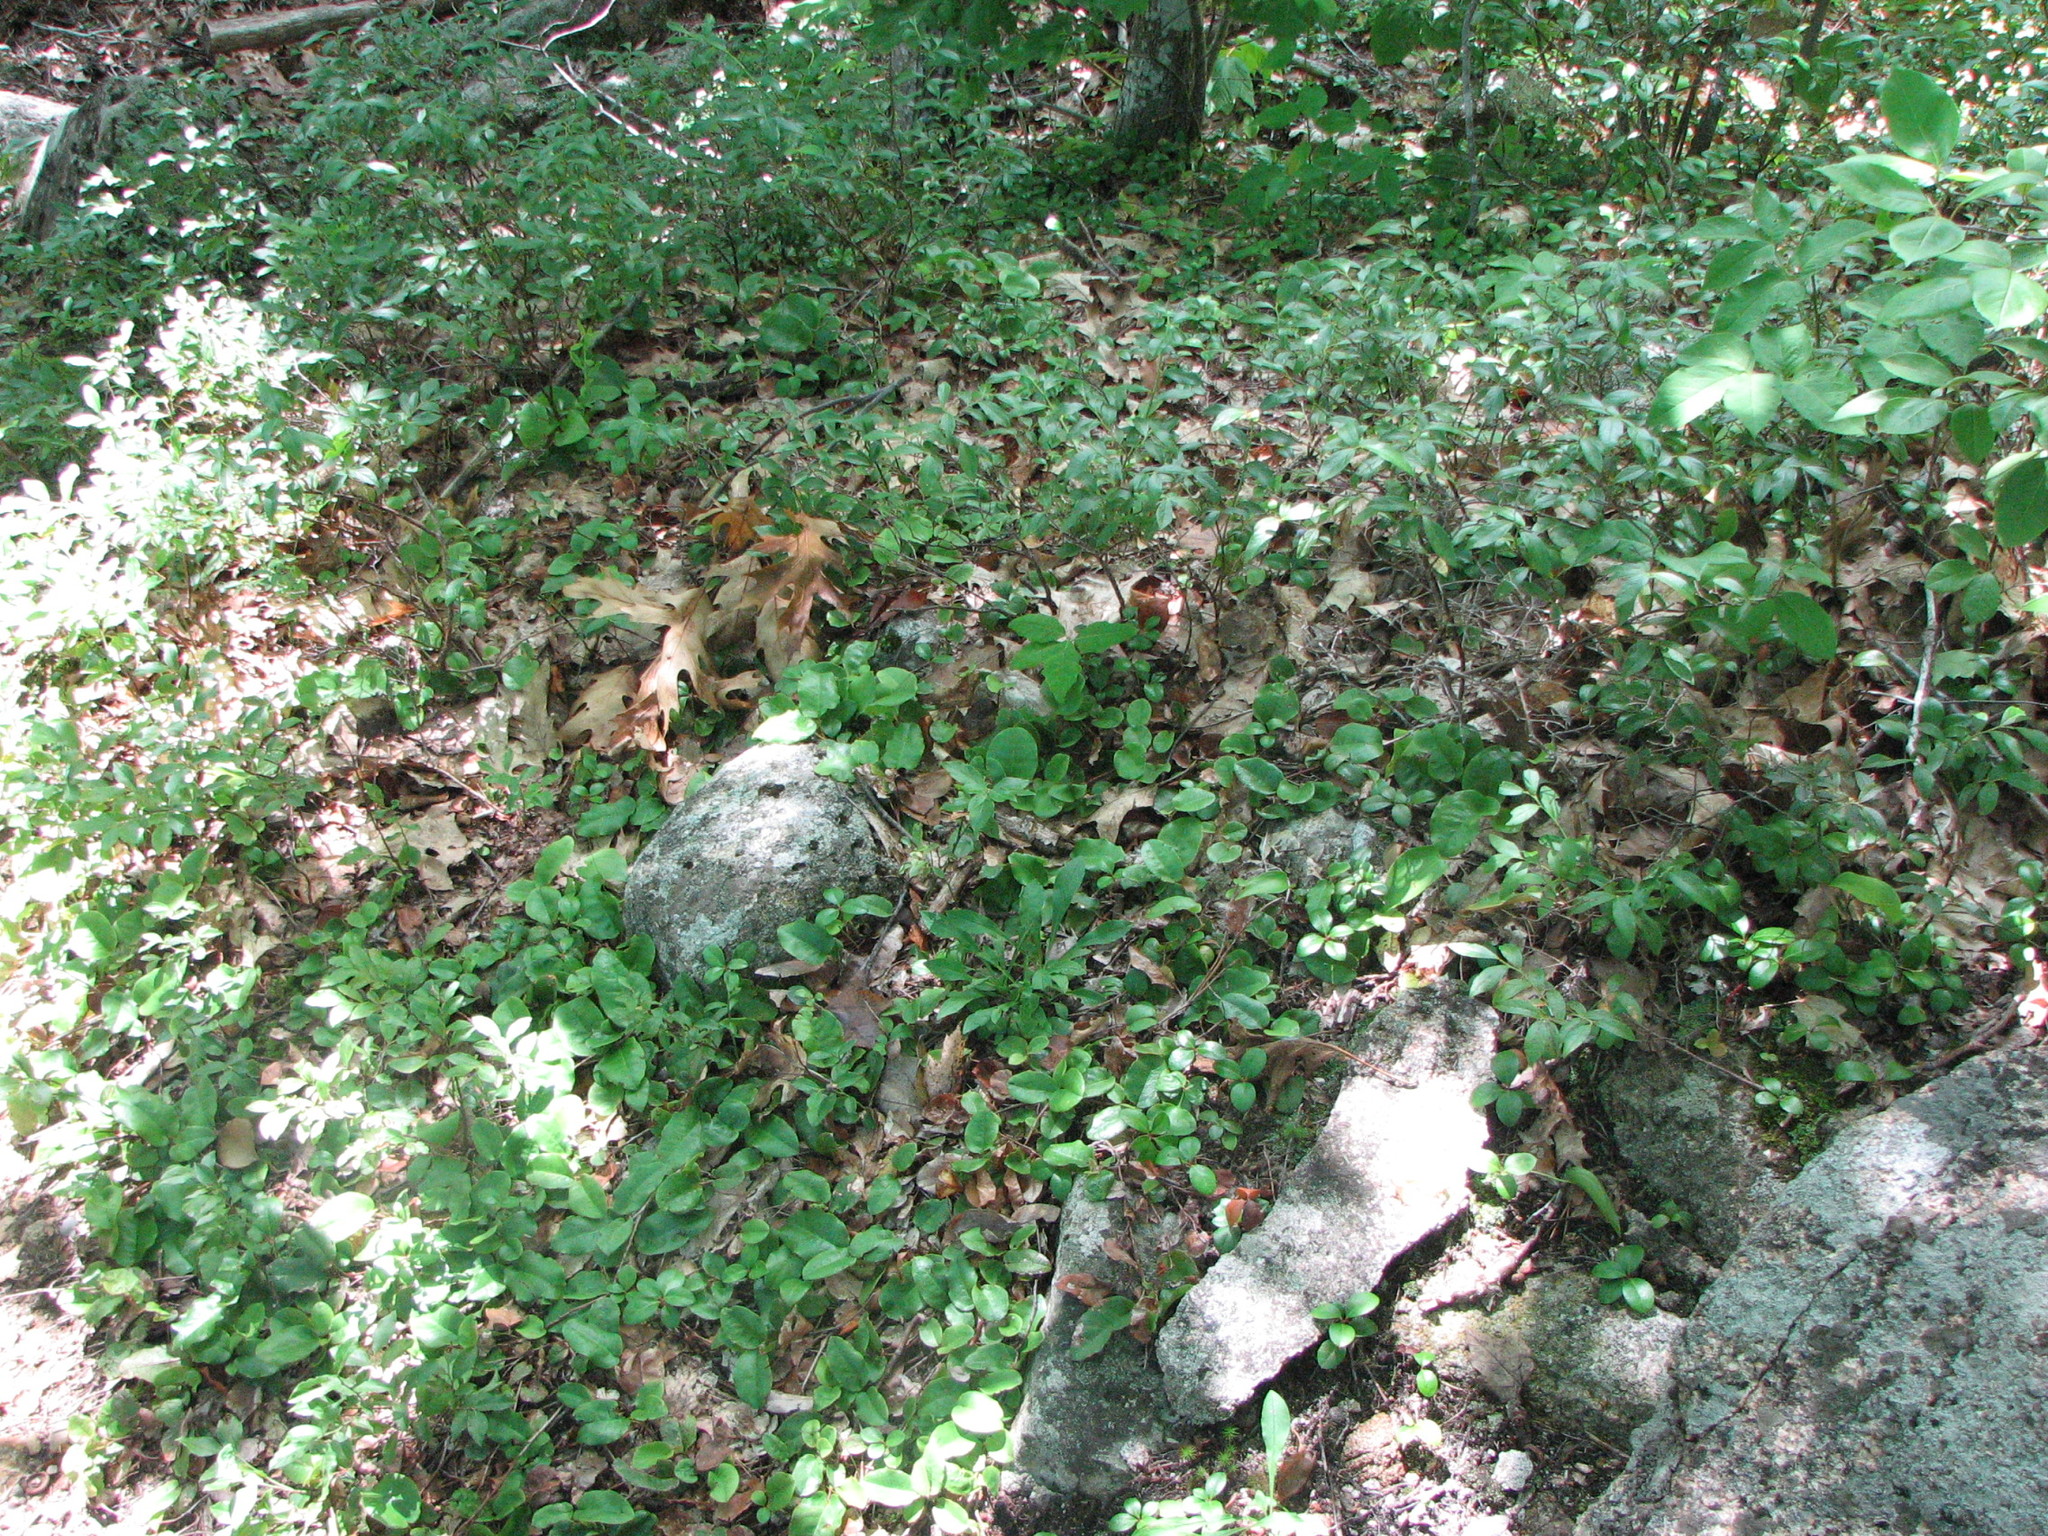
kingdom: Plantae
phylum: Tracheophyta
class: Magnoliopsida
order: Ericales
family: Ericaceae
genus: Epigaea
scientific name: Epigaea repens
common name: Gravelroot
